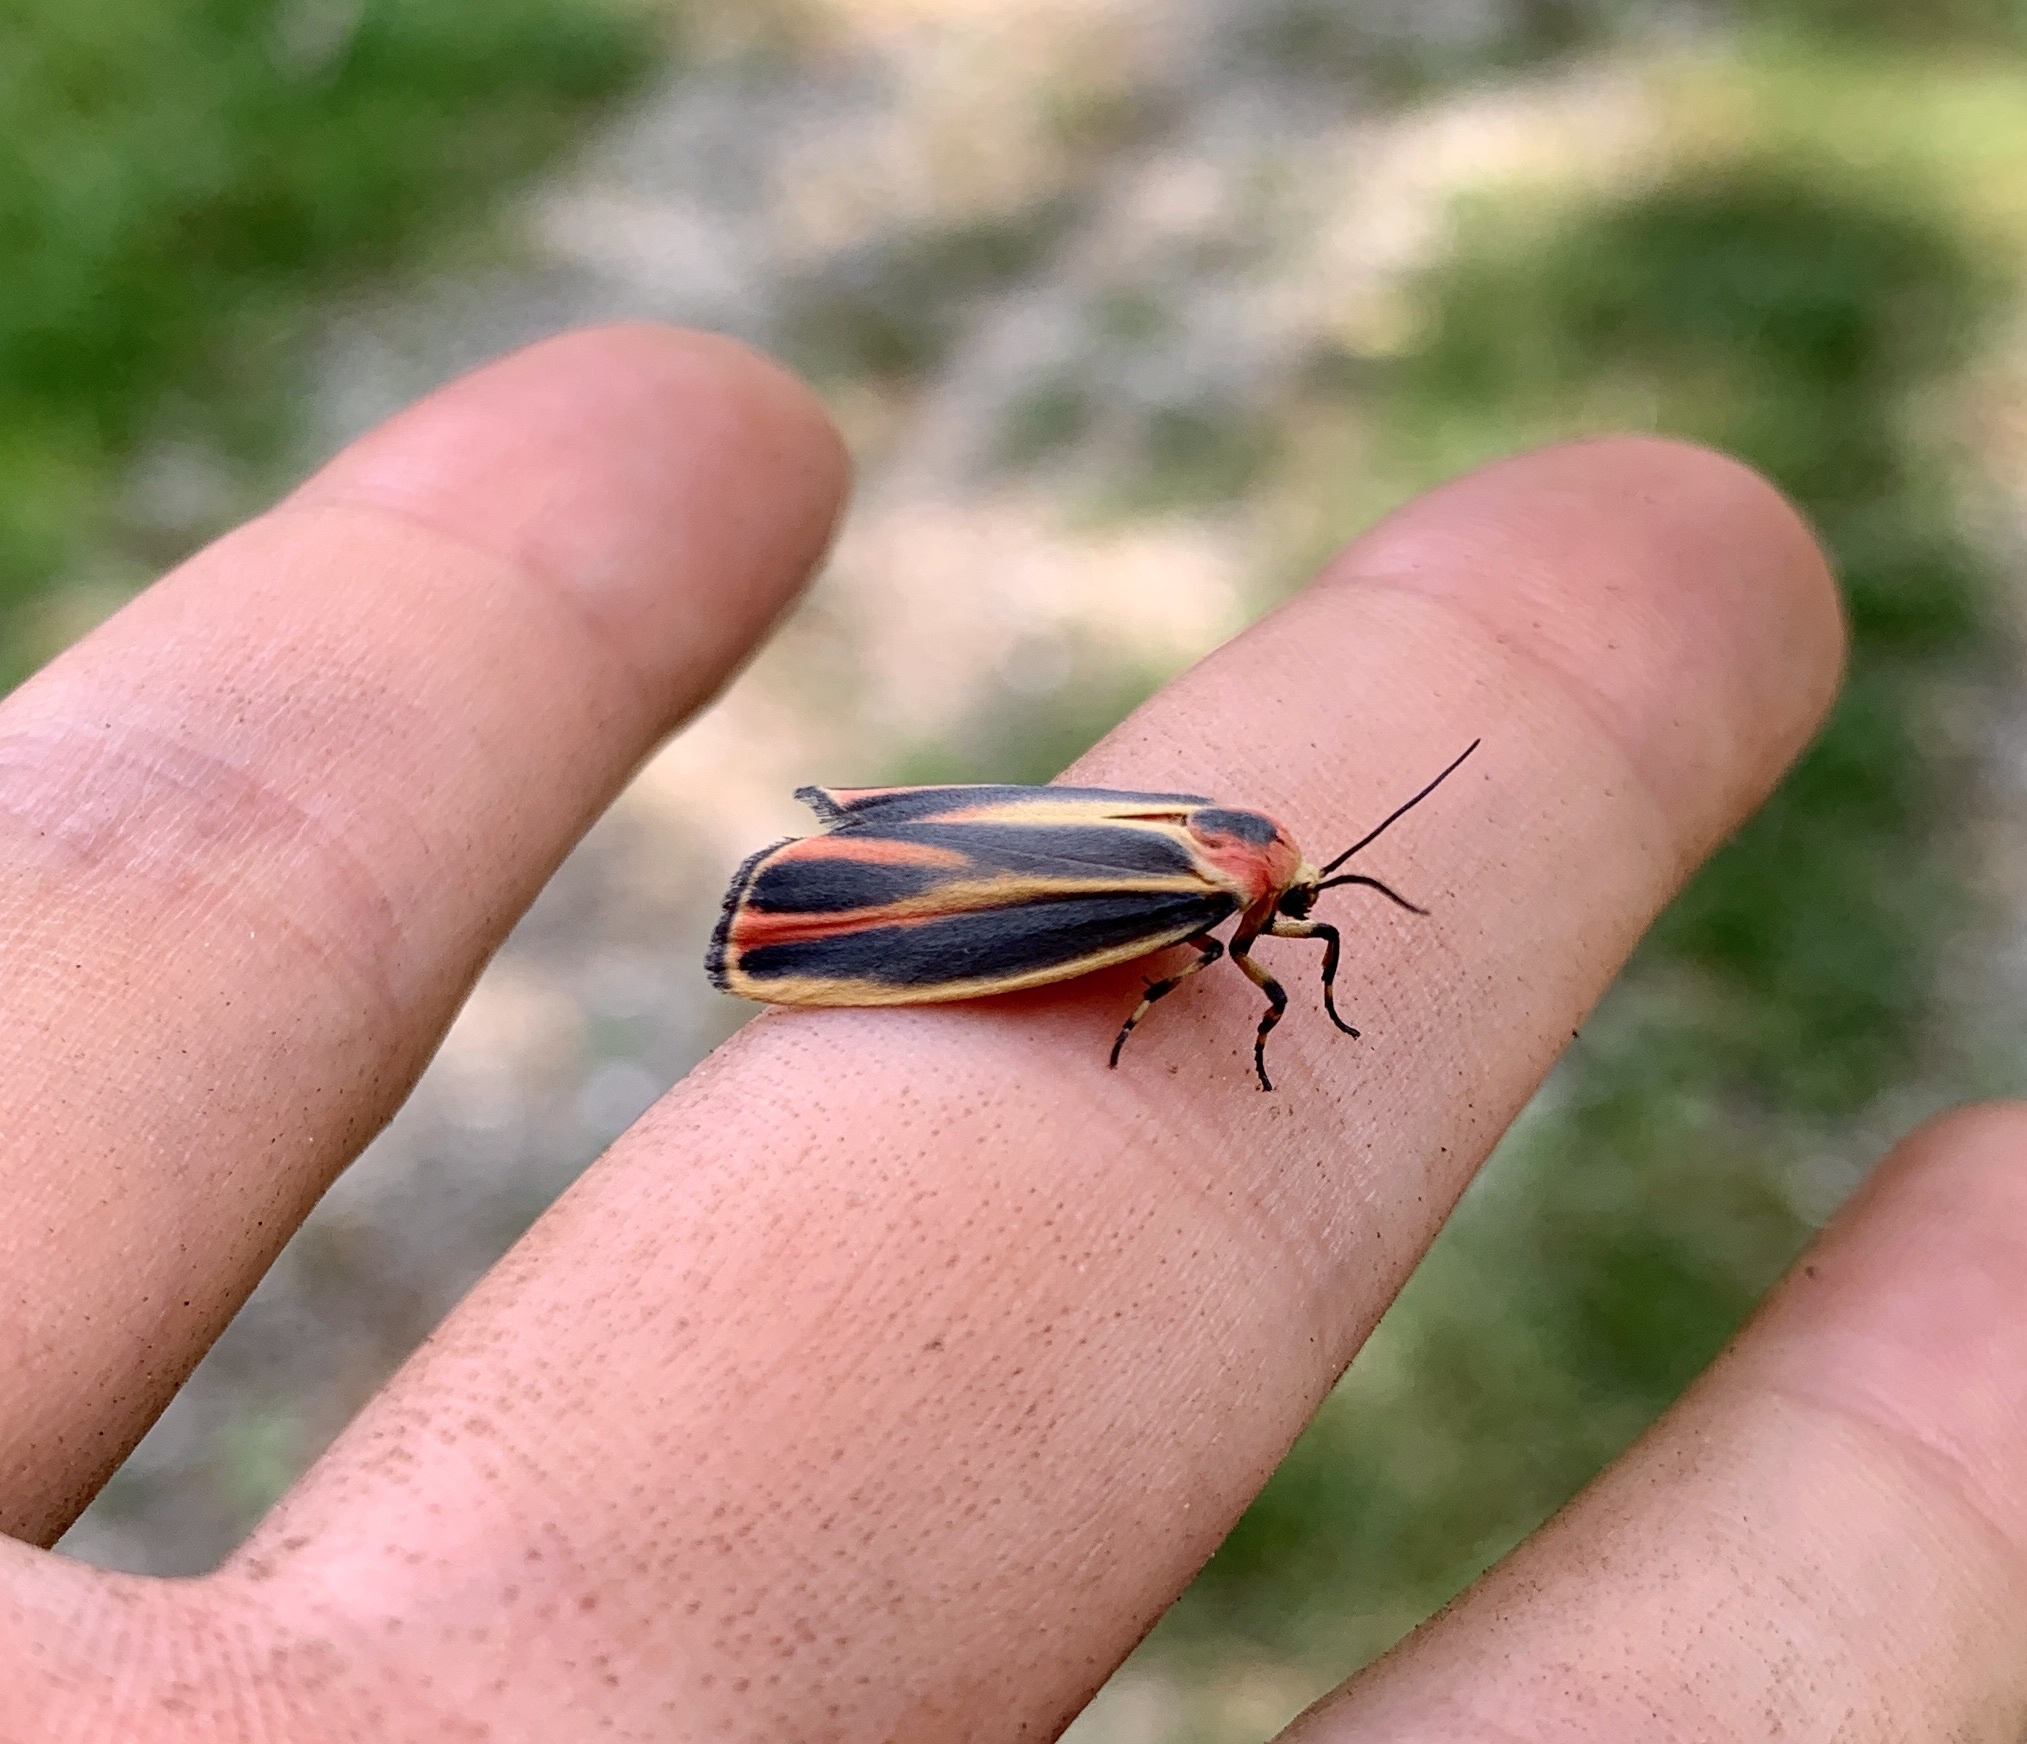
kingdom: Animalia
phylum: Arthropoda
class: Insecta
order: Lepidoptera
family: Erebidae
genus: Hypoprepia
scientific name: Hypoprepia fucosa
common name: Painted lichen moth
